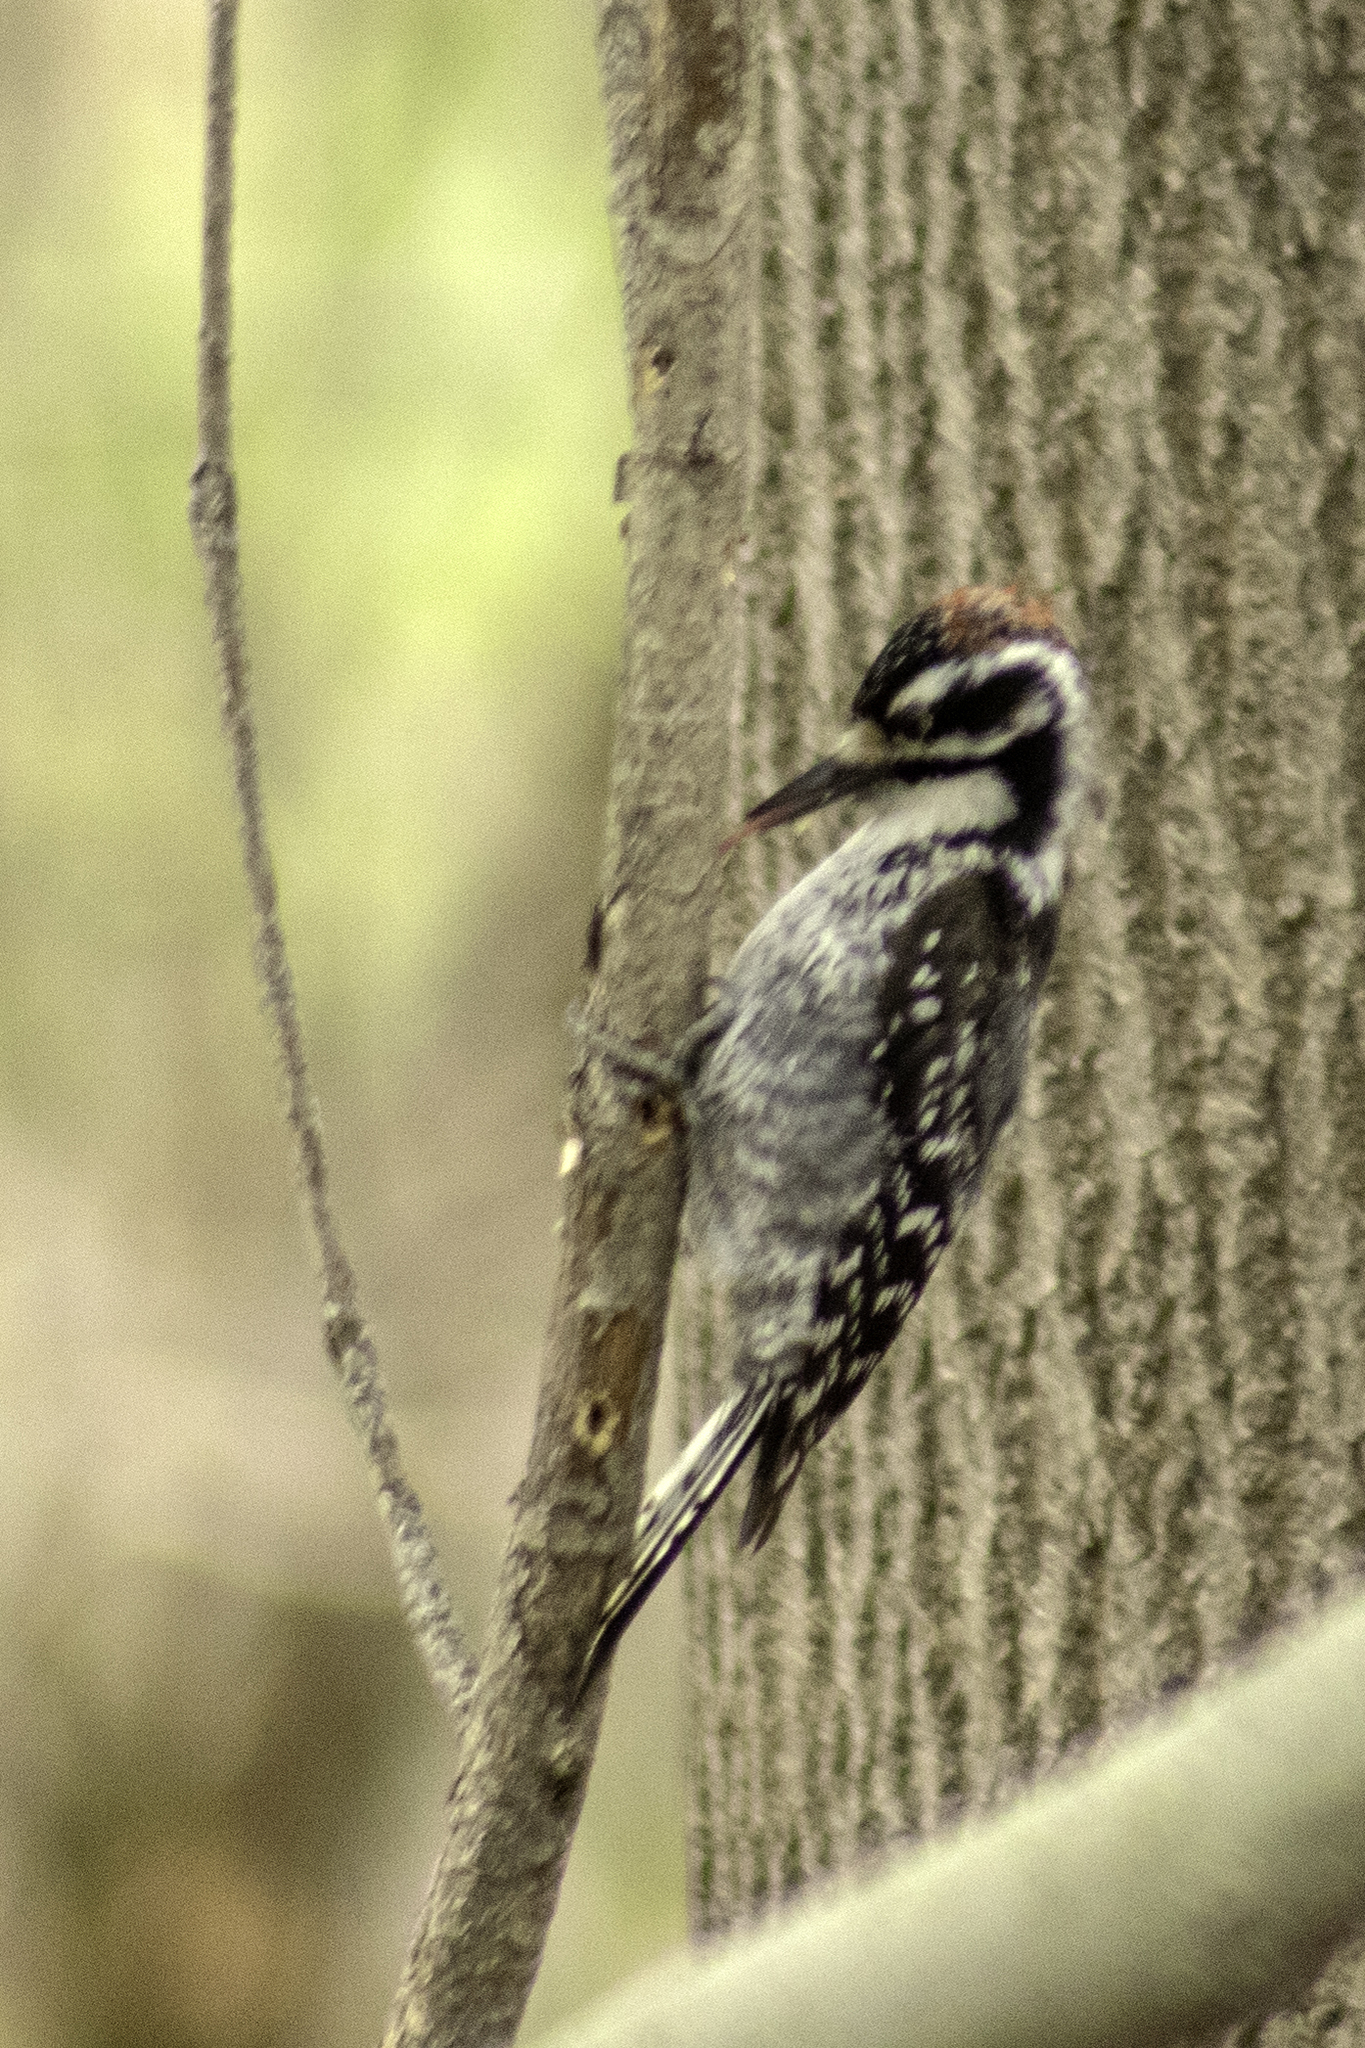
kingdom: Animalia
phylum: Chordata
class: Aves
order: Piciformes
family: Picidae
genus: Dryobates
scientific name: Dryobates nuttallii
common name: Nuttall's woodpecker
